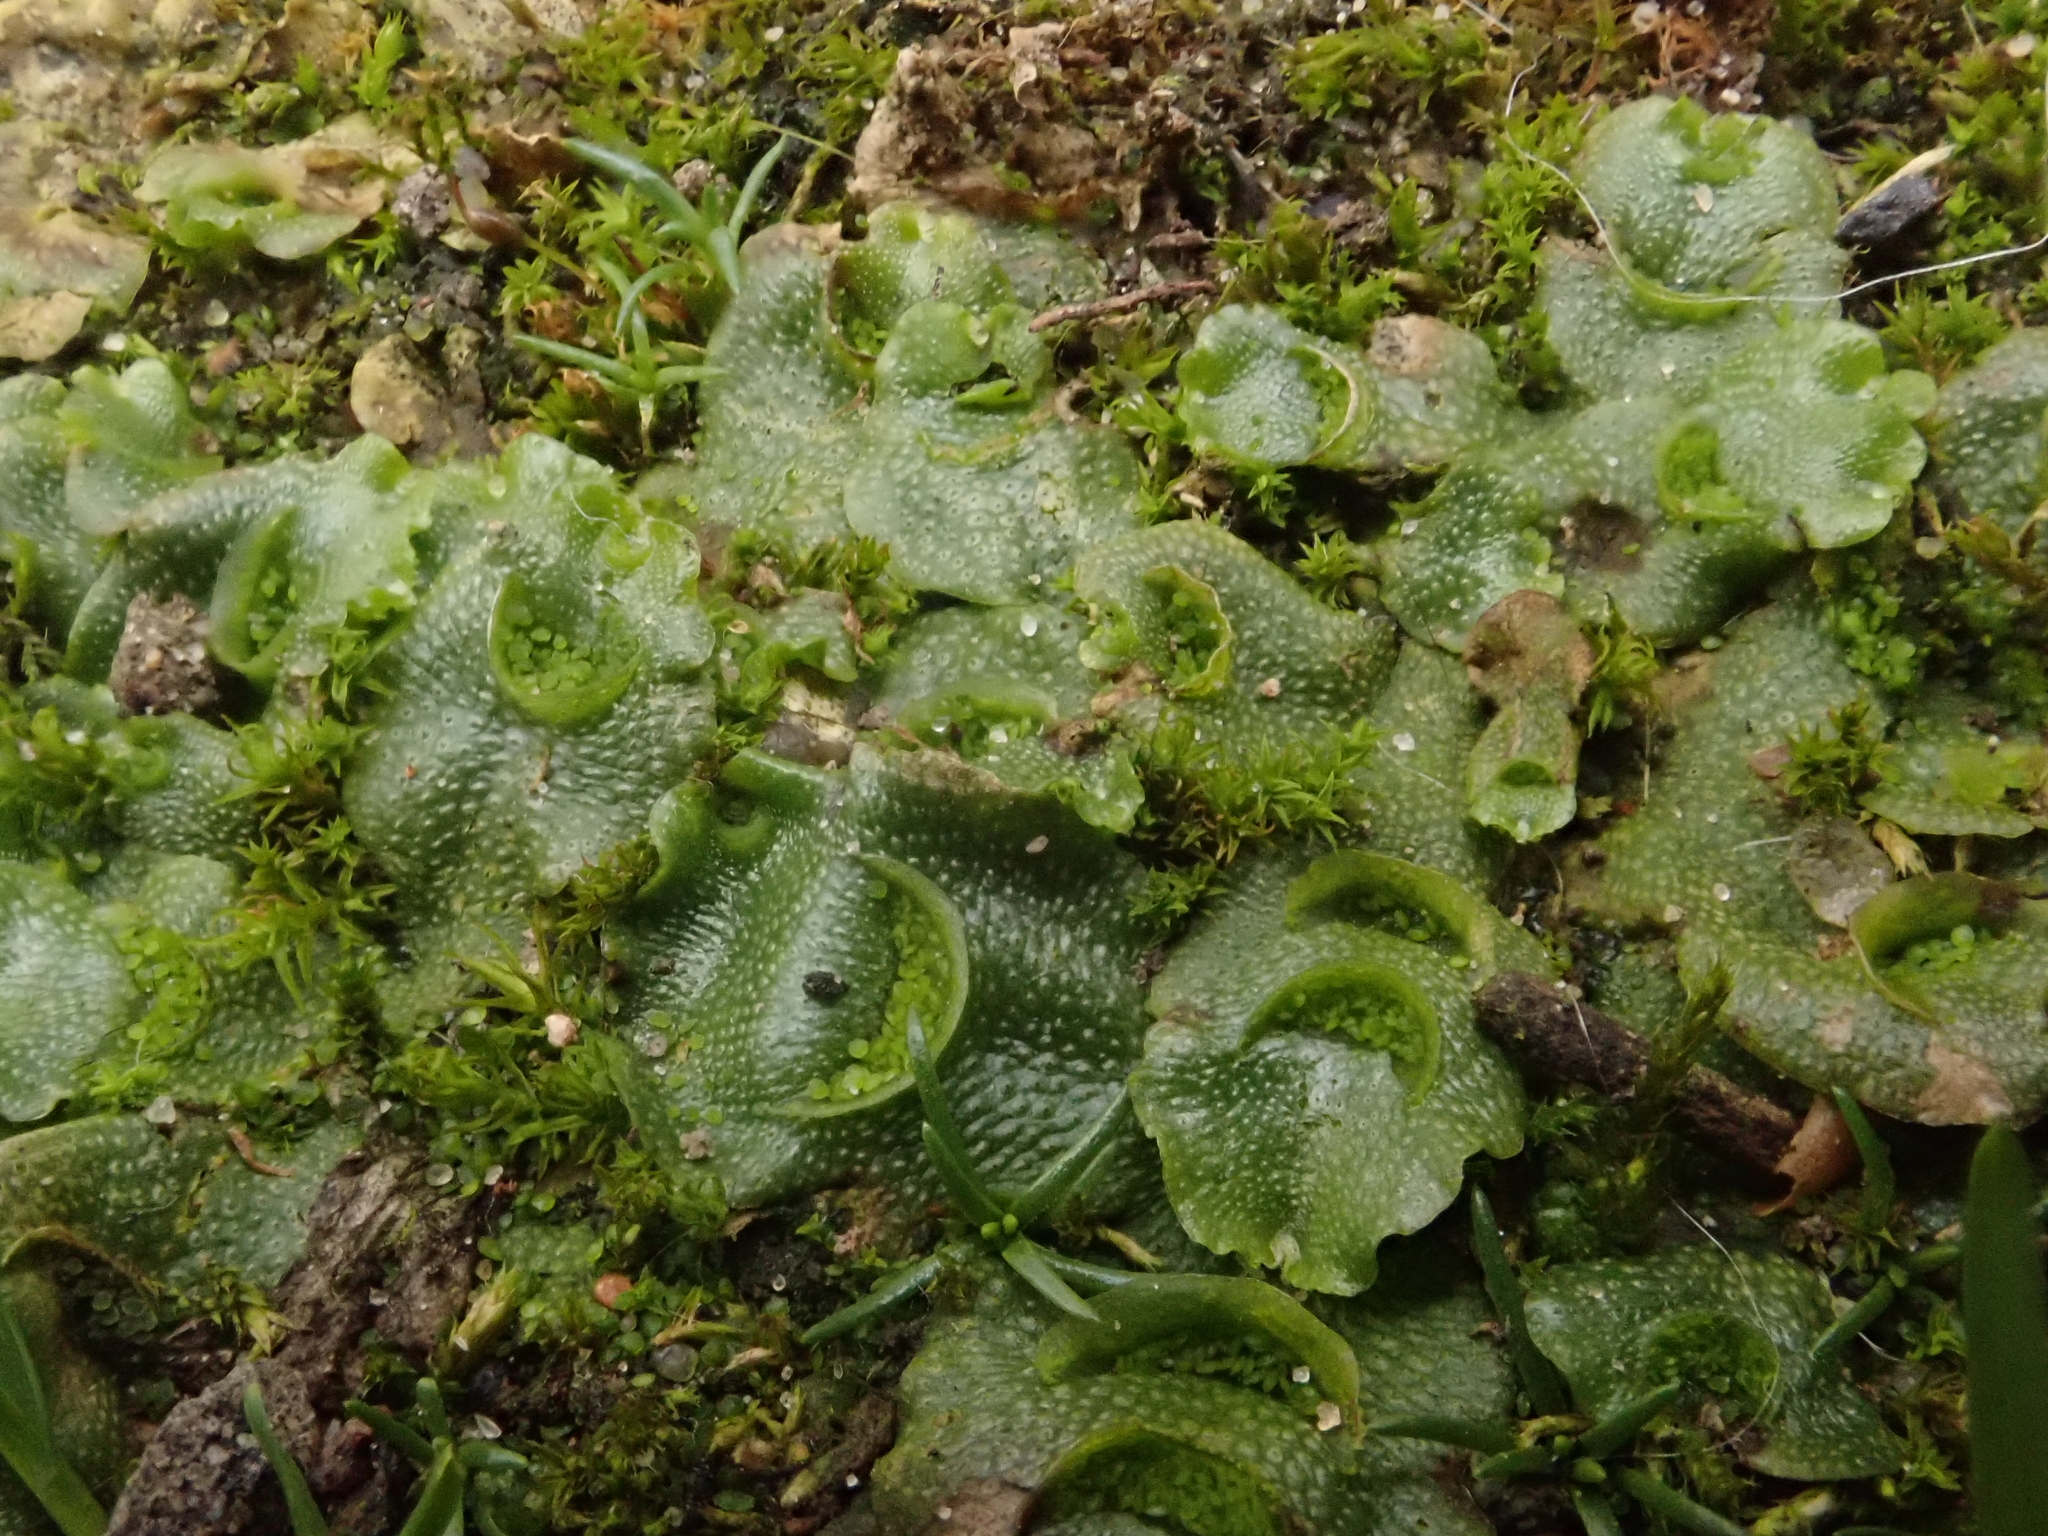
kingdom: Plantae
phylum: Marchantiophyta
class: Marchantiopsida
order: Lunulariales
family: Lunulariaceae
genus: Lunularia
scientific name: Lunularia cruciata
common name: Crescent-cup liverwort
